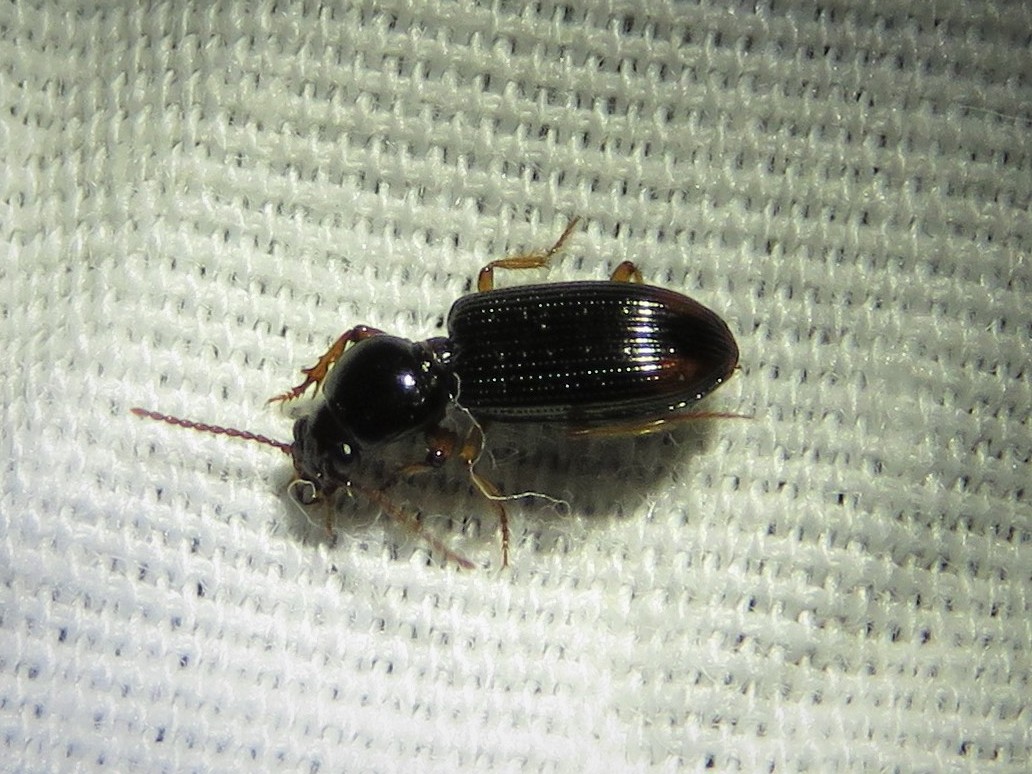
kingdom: Animalia
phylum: Arthropoda
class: Insecta
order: Coleoptera
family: Carabidae
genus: Aspidoglossa
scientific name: Aspidoglossa subangulata
